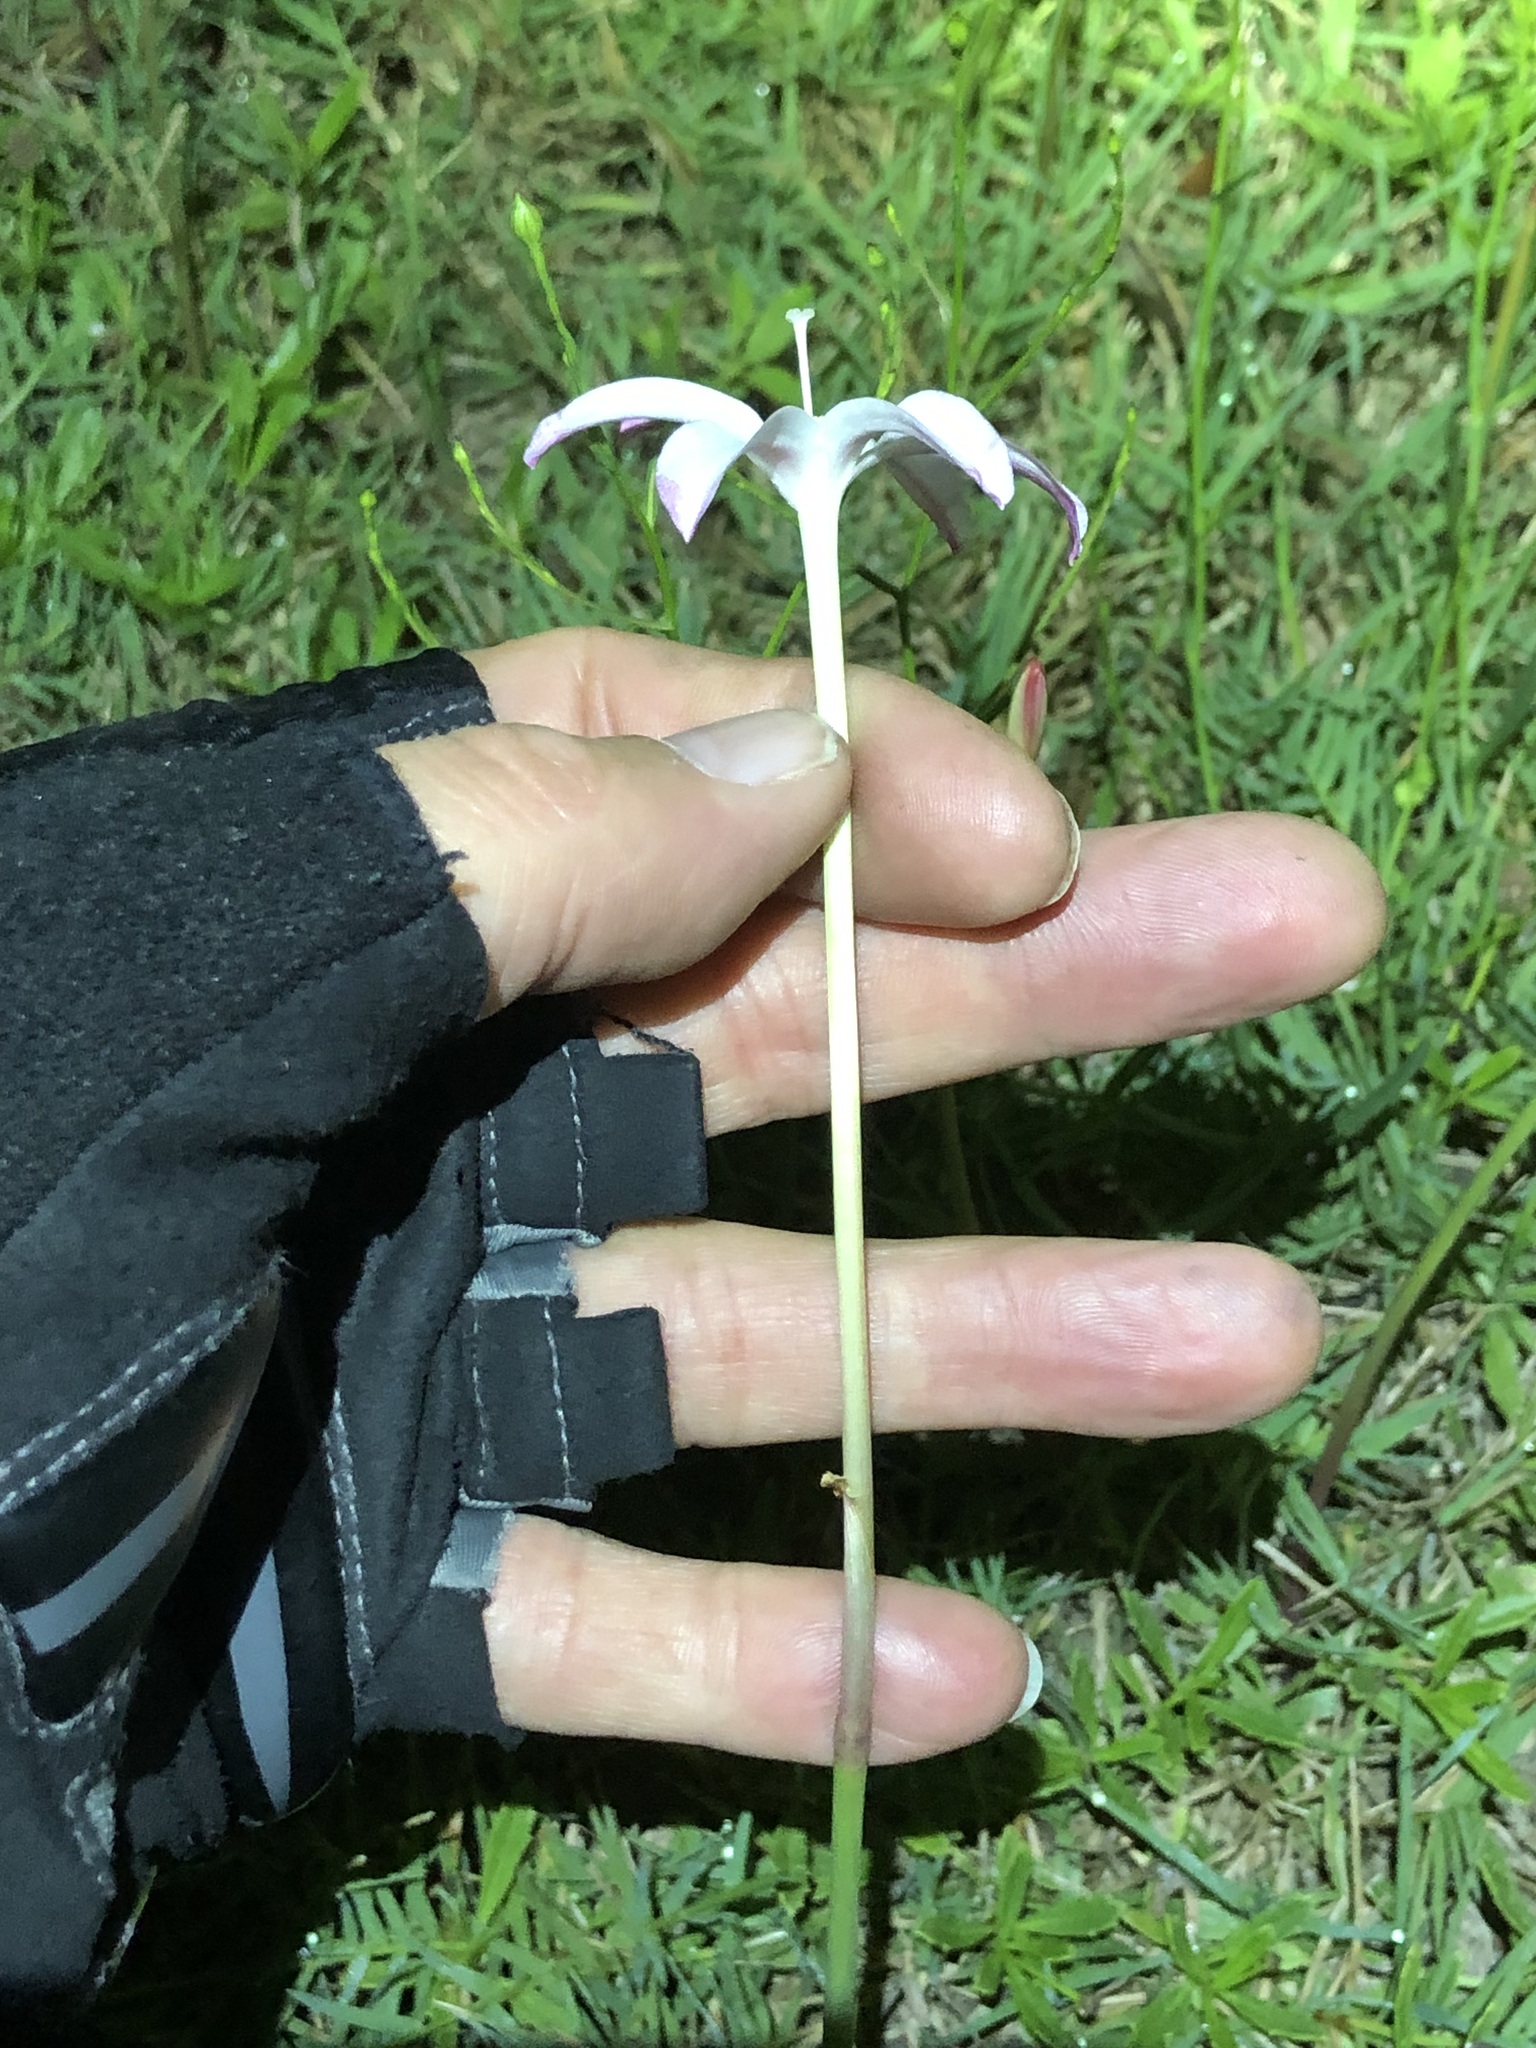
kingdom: Plantae
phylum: Tracheophyta
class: Liliopsida
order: Asparagales
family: Amaryllidaceae
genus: Zephyranthes
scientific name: Zephyranthes traubii
